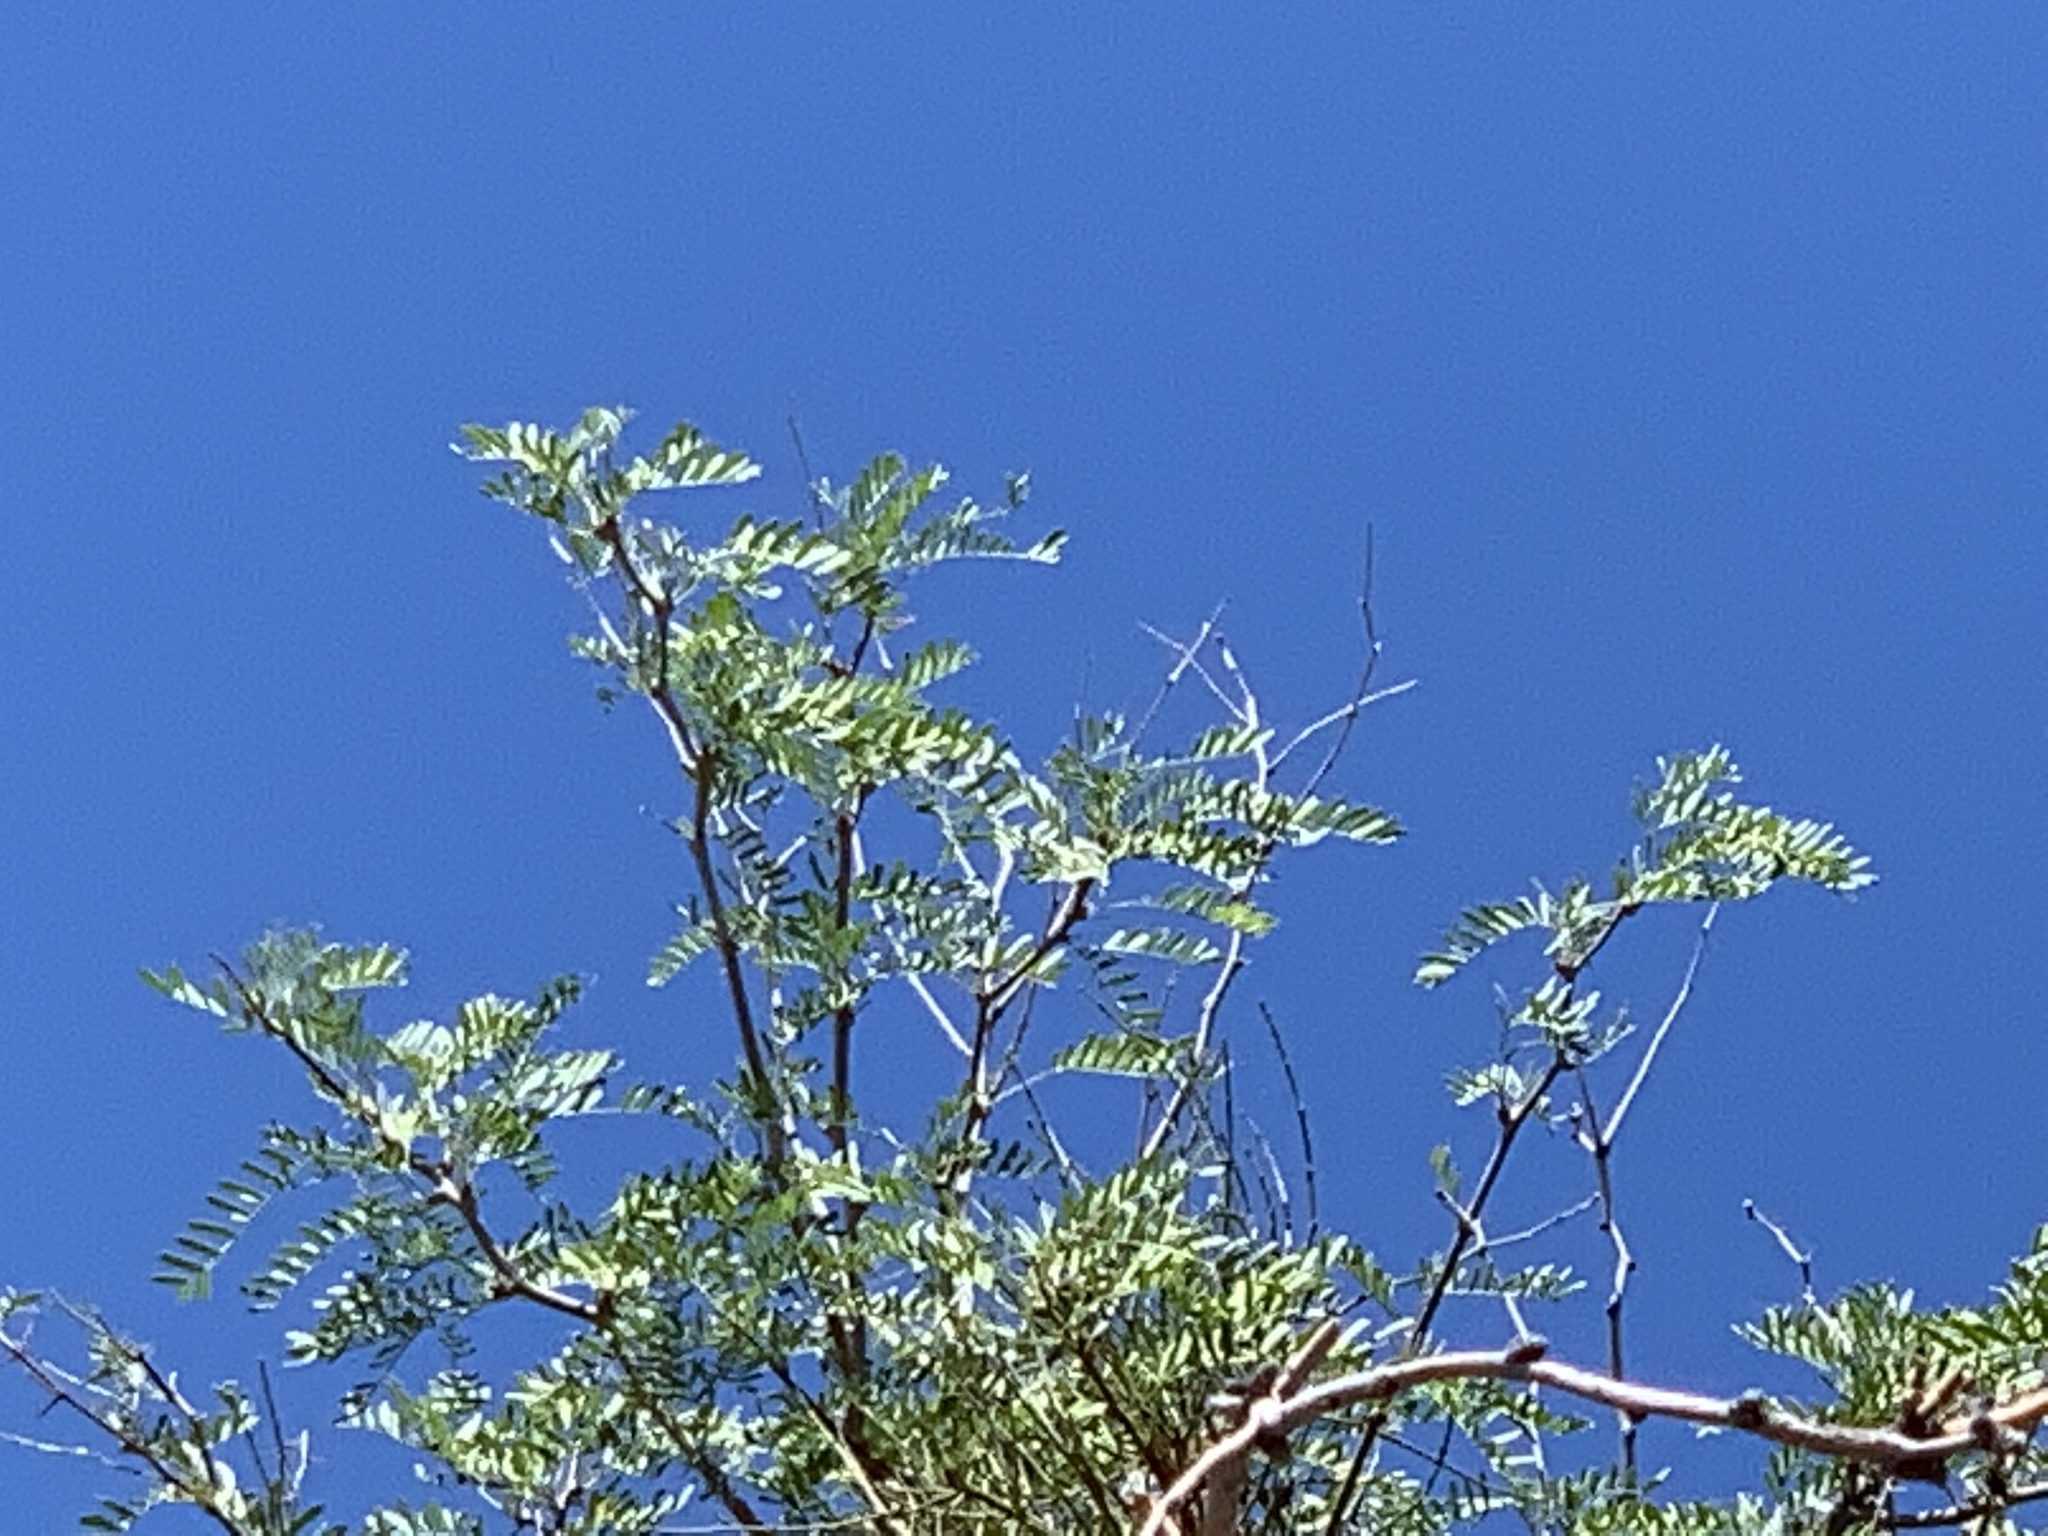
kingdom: Plantae
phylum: Tracheophyta
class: Magnoliopsida
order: Fabales
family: Fabaceae
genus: Prosopis
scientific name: Prosopis pubescens
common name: Screw-bean
